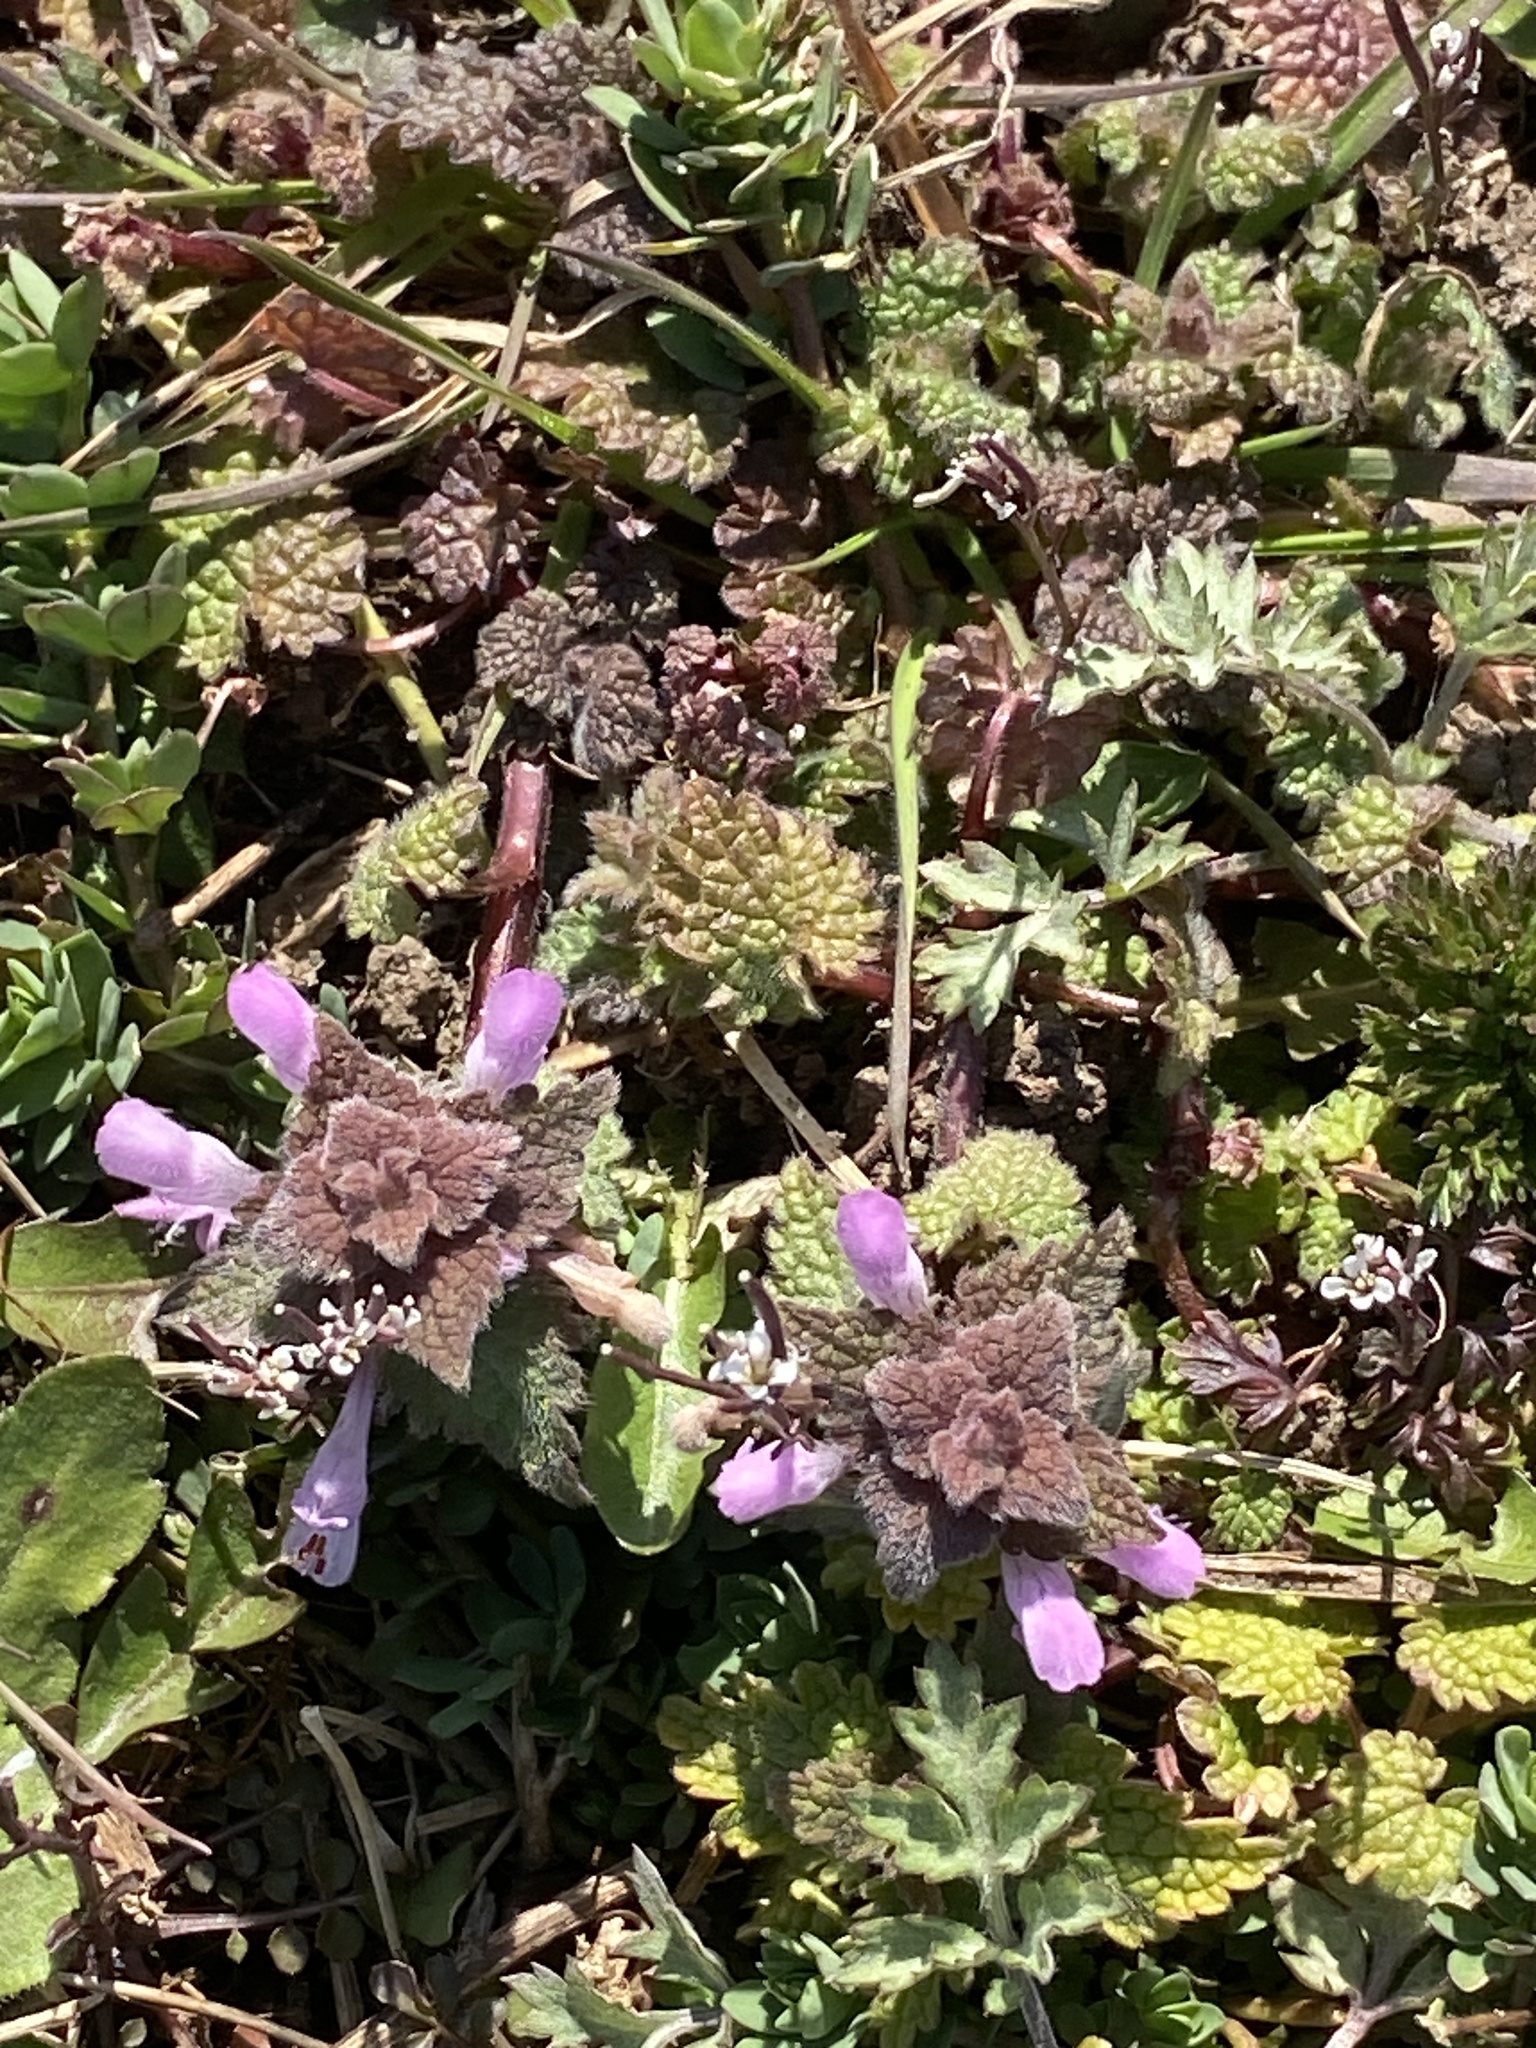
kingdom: Plantae
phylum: Tracheophyta
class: Magnoliopsida
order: Lamiales
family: Lamiaceae
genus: Lamium
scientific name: Lamium purpureum
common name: Red dead-nettle
